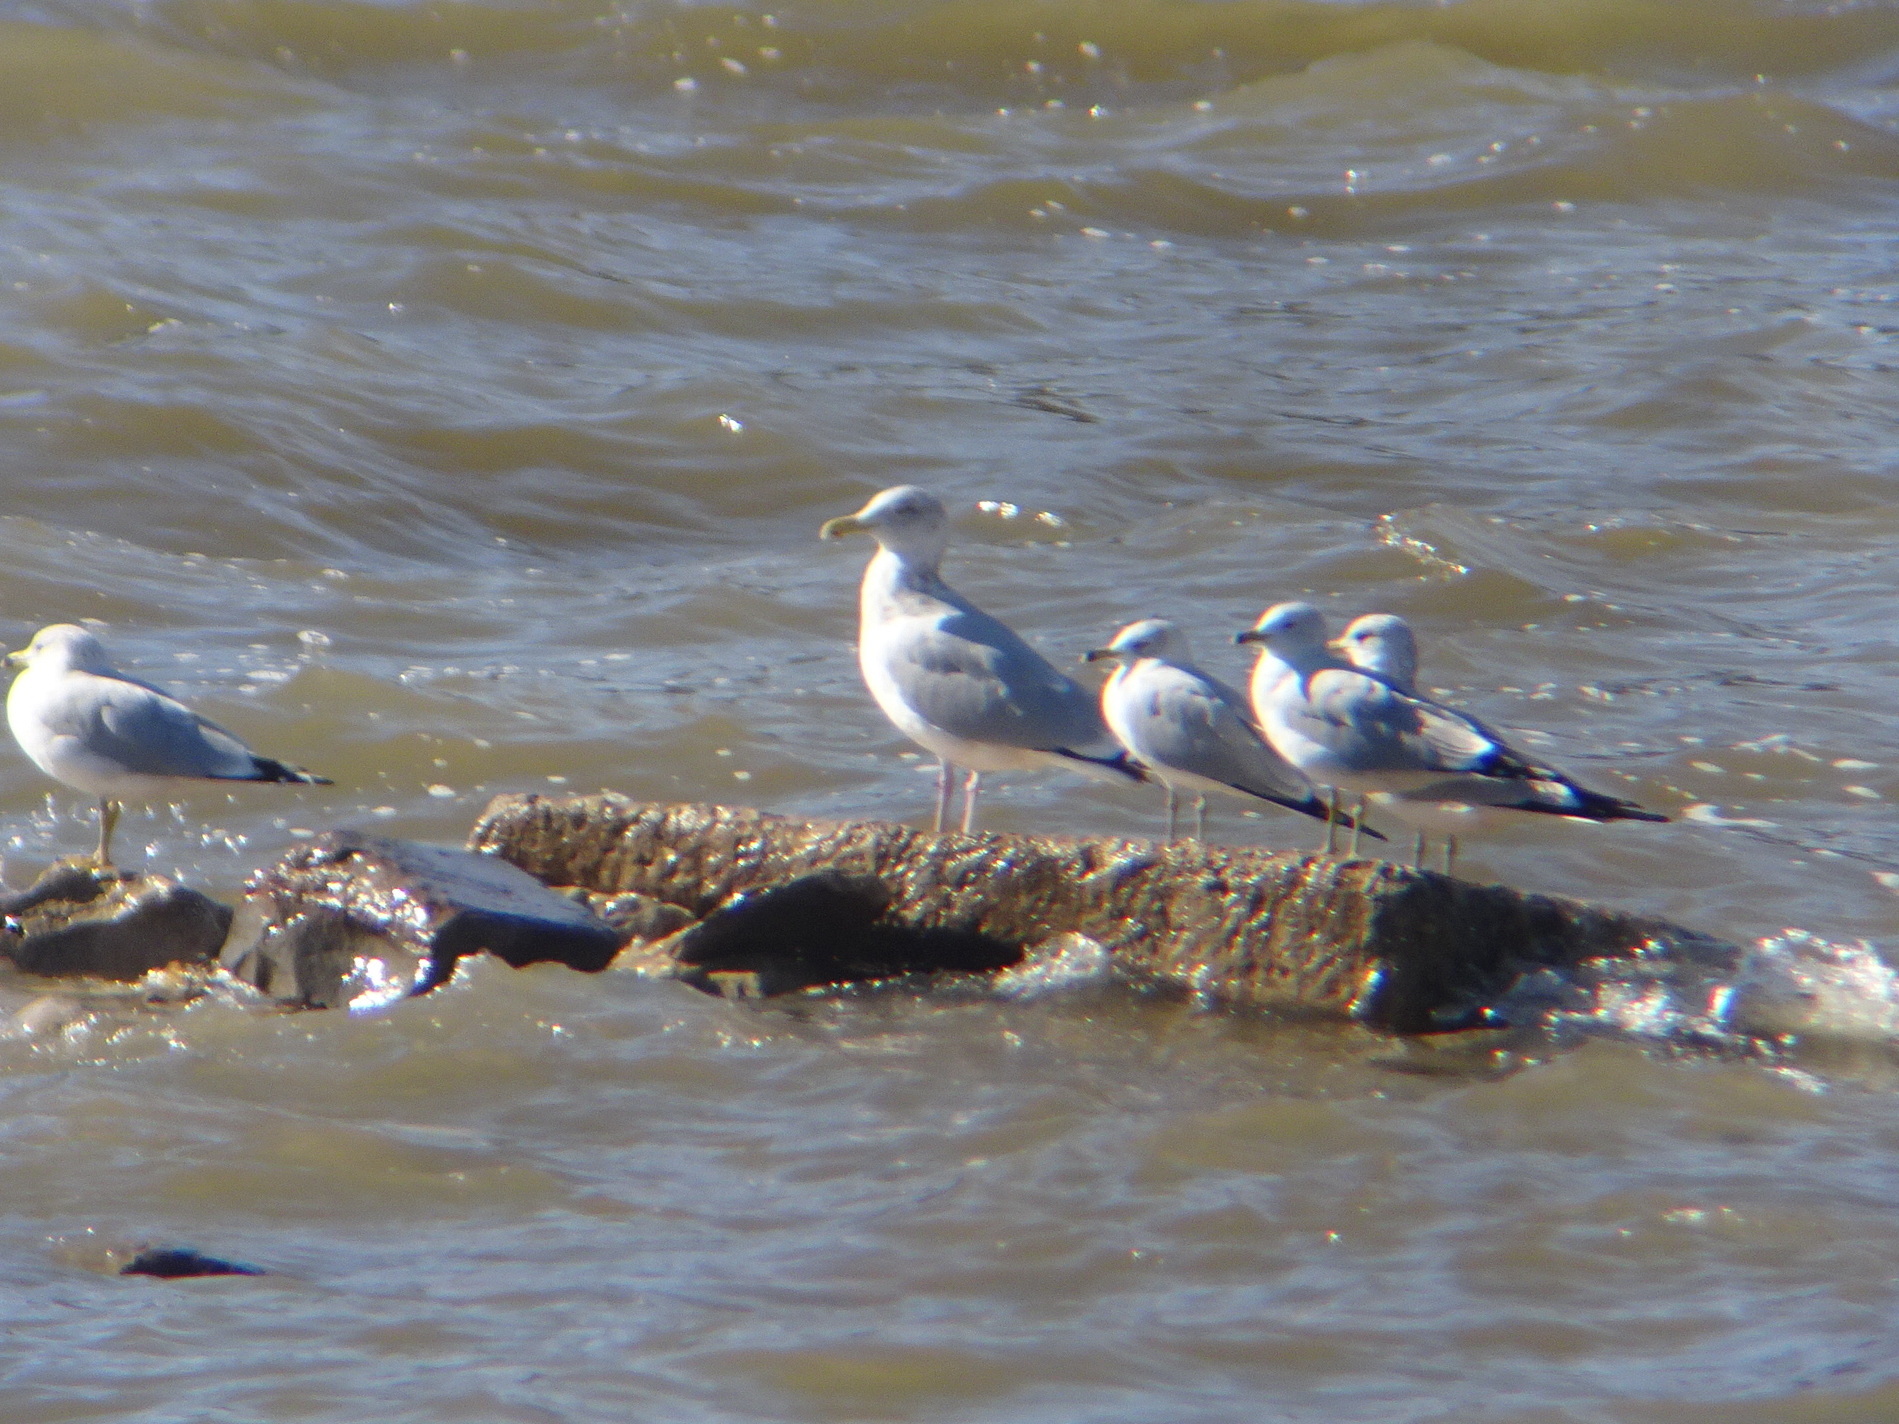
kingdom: Animalia
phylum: Chordata
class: Aves
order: Charadriiformes
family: Laridae
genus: Larus
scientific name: Larus argentatus
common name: Herring gull
